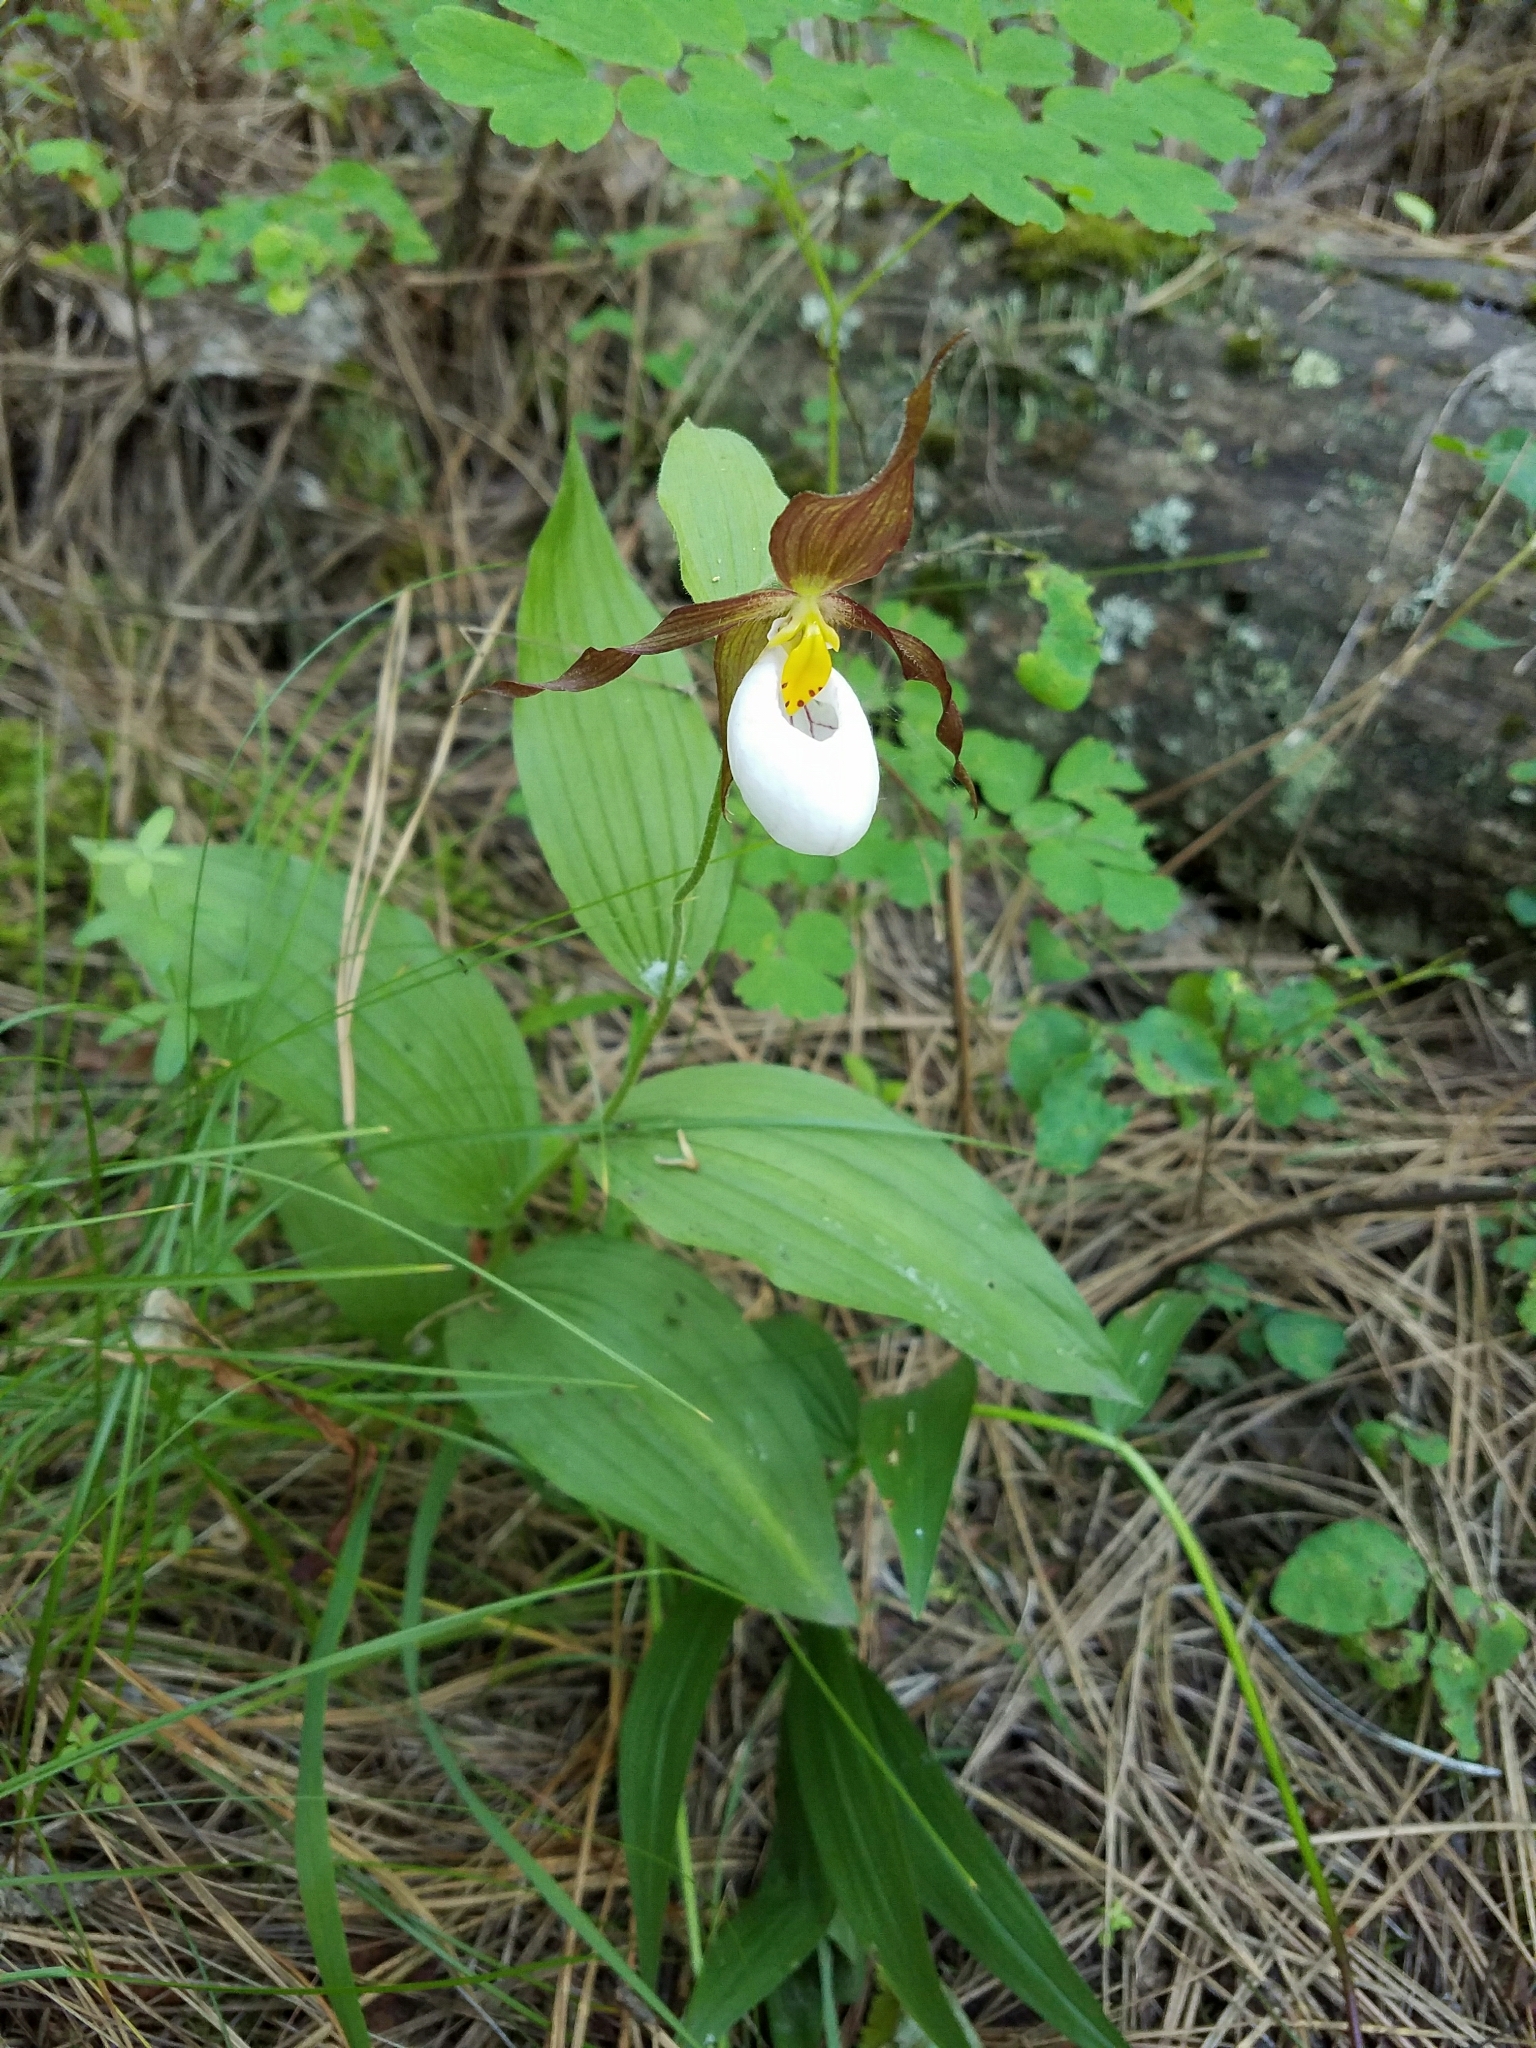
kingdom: Plantae
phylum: Tracheophyta
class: Liliopsida
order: Asparagales
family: Orchidaceae
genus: Cypripedium
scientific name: Cypripedium montanum
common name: Mountain lady's-slipper
